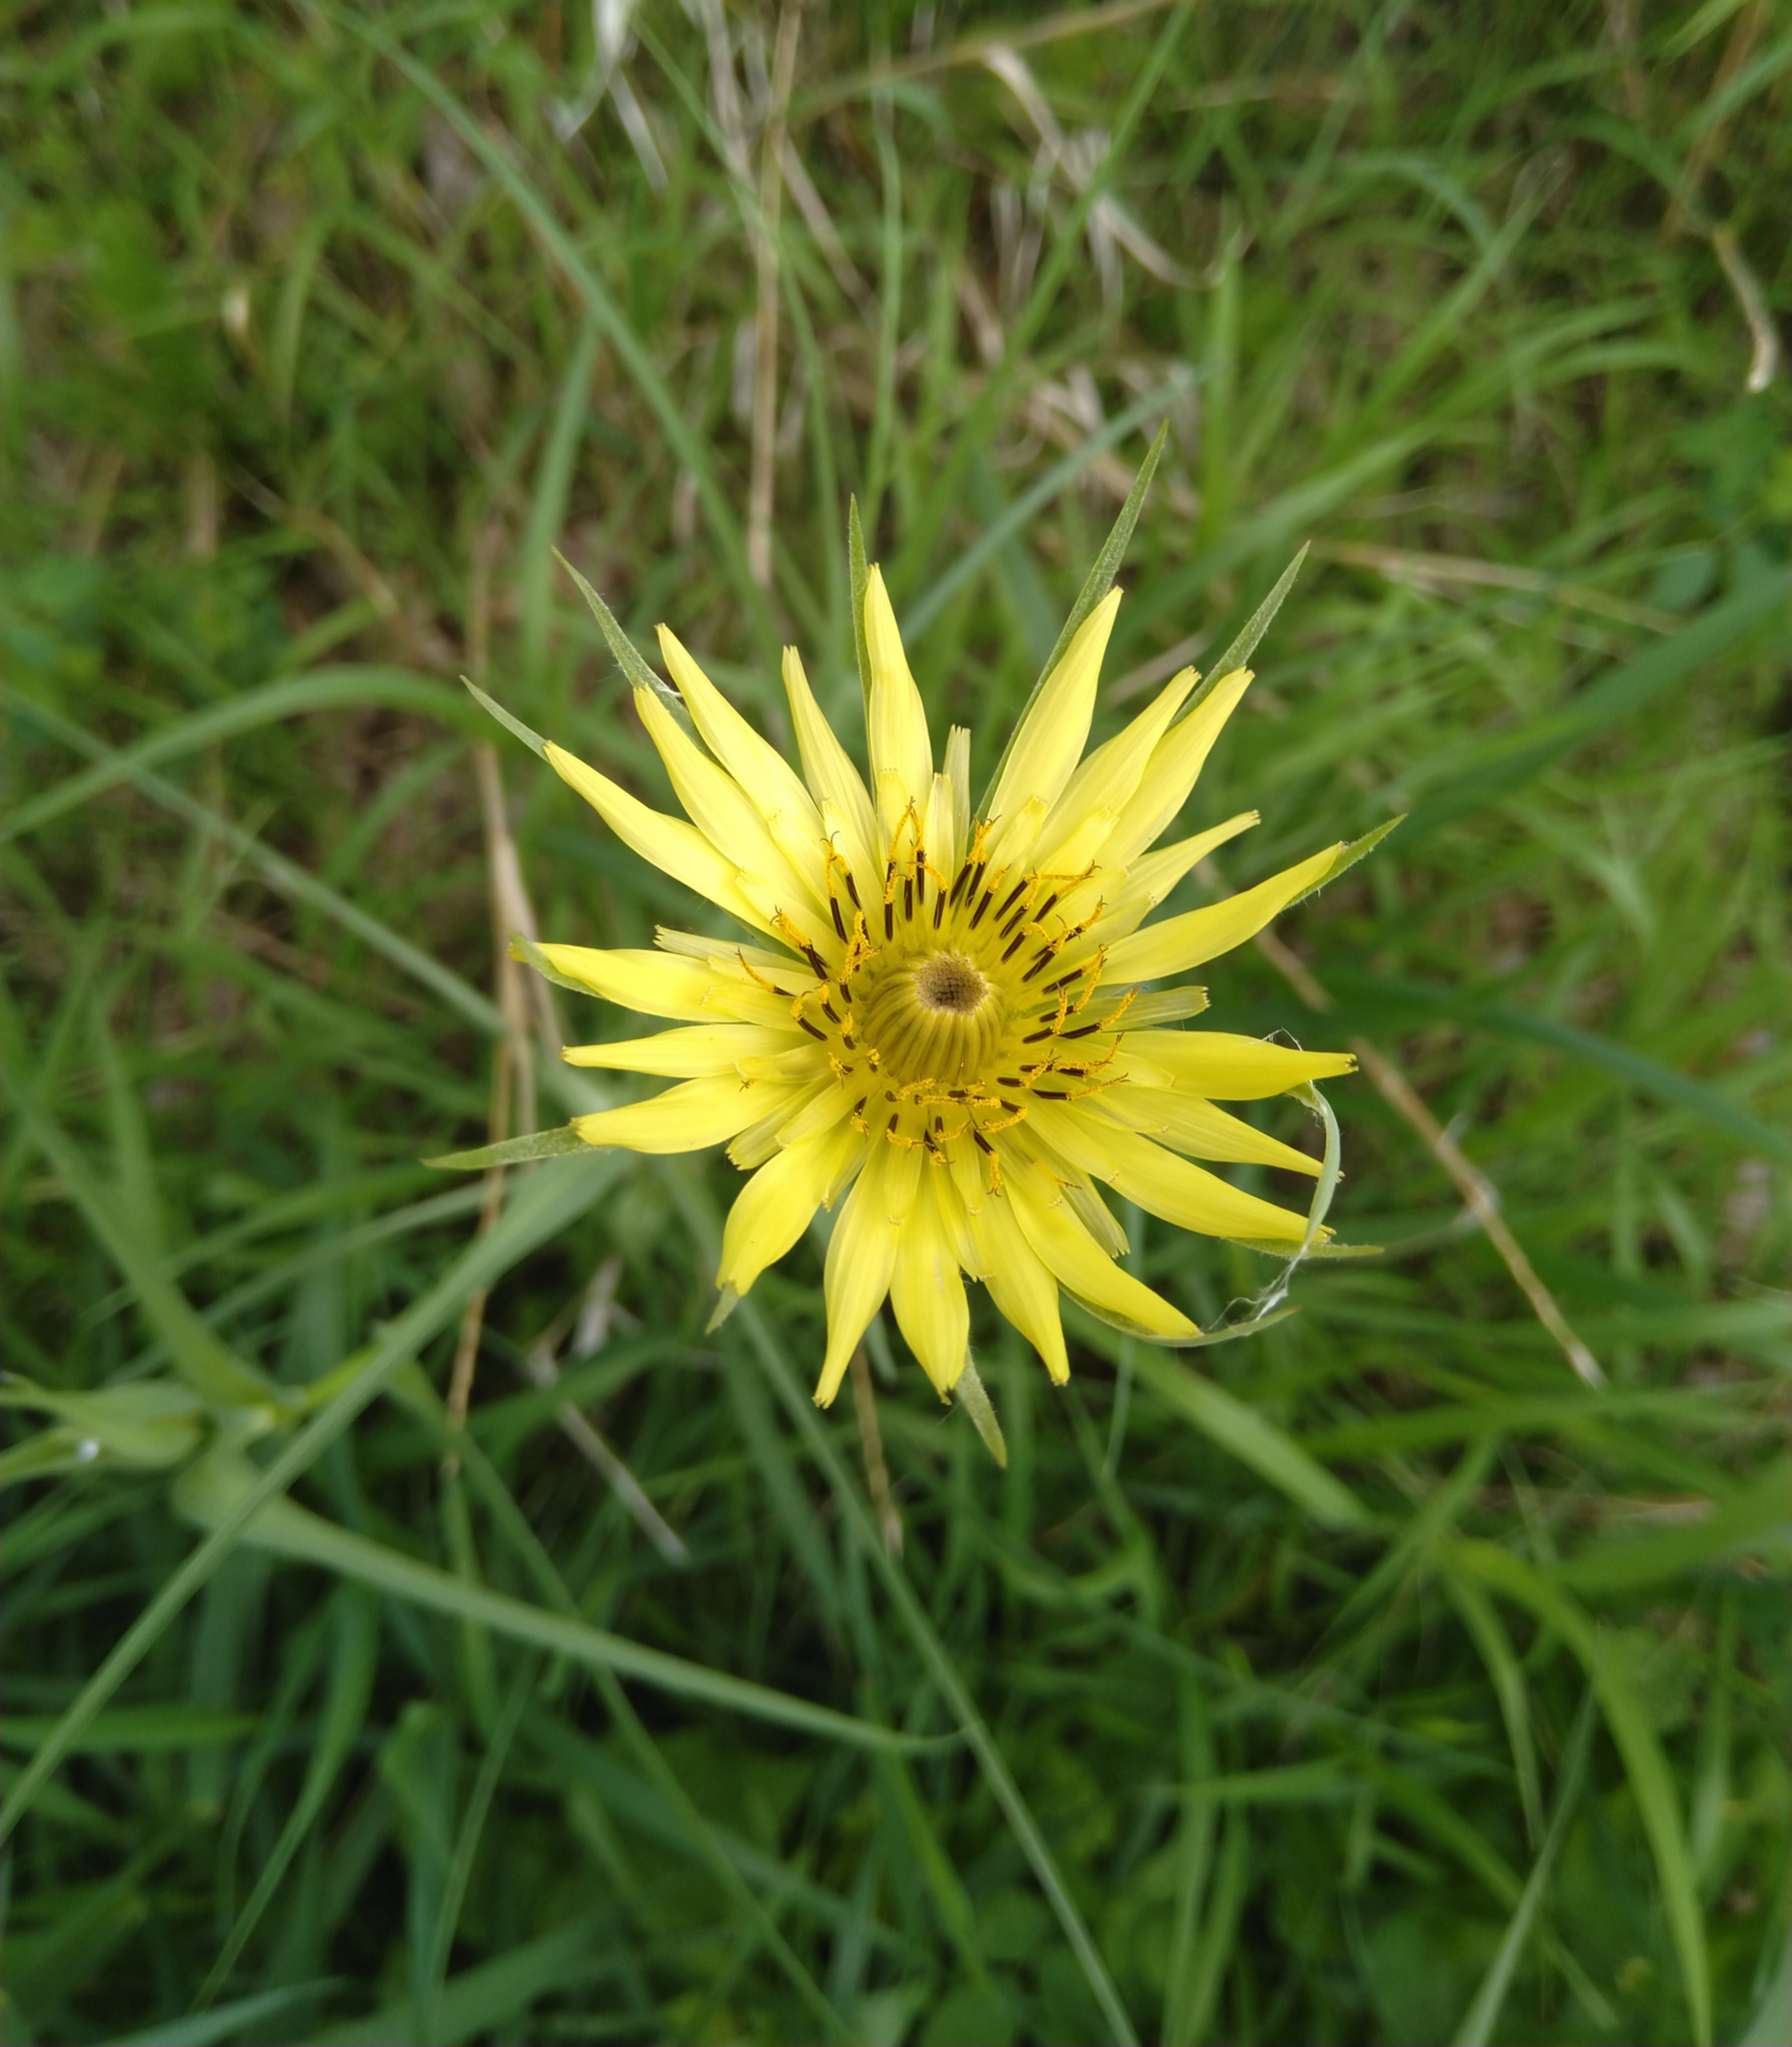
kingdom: Plantae
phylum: Tracheophyta
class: Magnoliopsida
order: Asterales
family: Asteraceae
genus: Tragopogon
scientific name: Tragopogon dubius
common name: Yellow salsify
